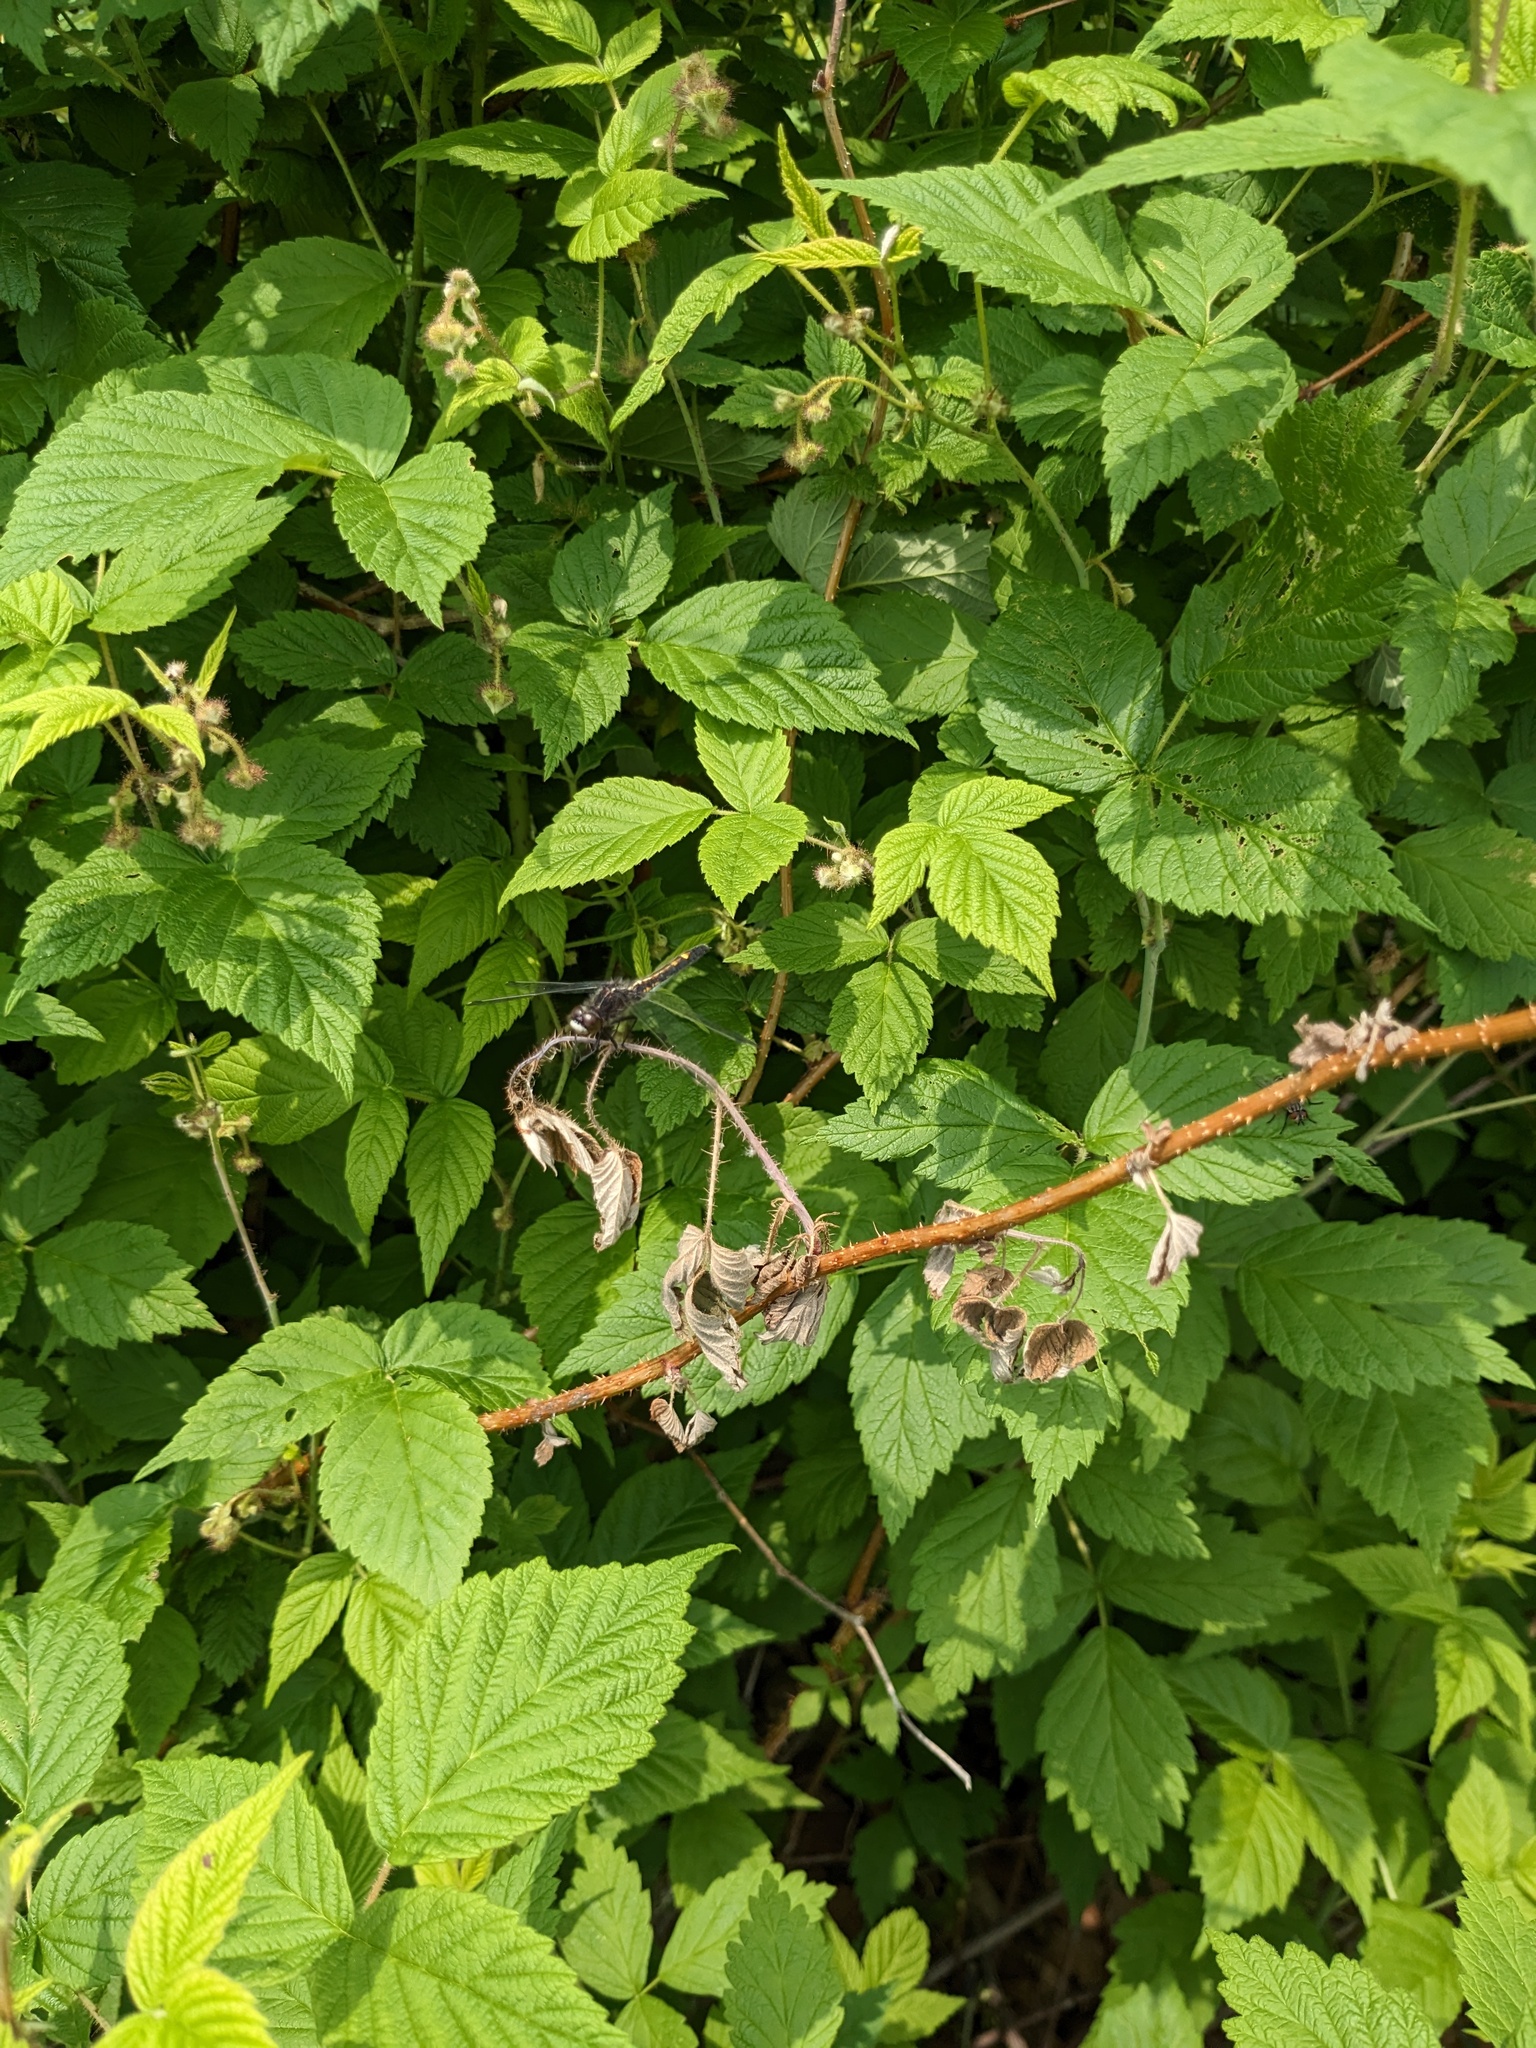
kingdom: Animalia
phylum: Arthropoda
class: Insecta
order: Odonata
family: Libellulidae
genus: Leucorrhinia
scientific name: Leucorrhinia intacta
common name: Dot-tailed whiteface
